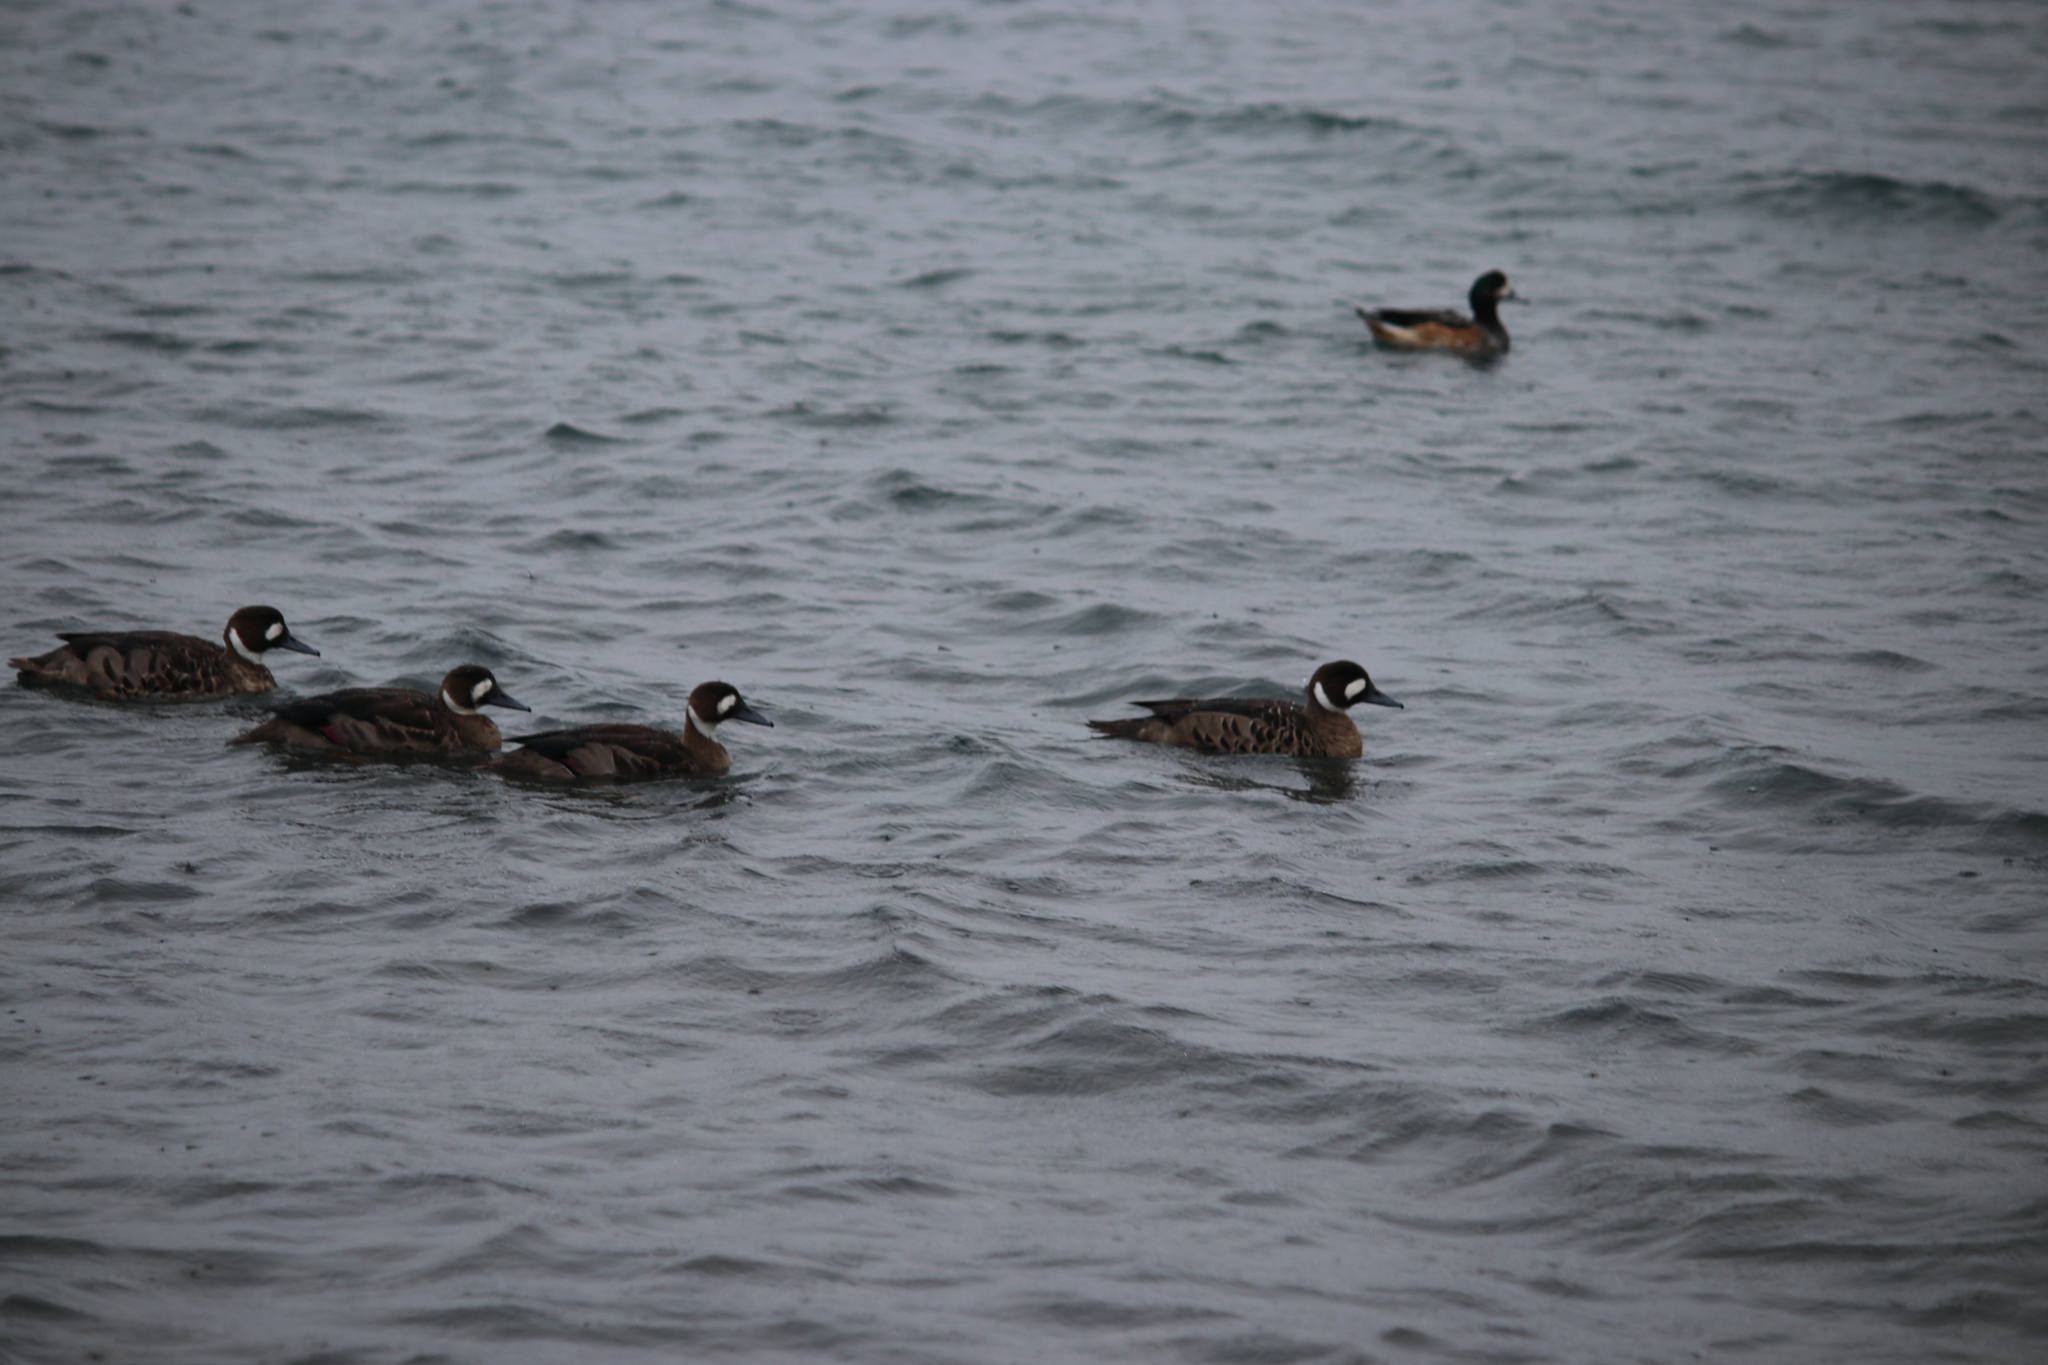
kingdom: Animalia
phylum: Chordata
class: Aves
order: Anseriformes
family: Anatidae
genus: Speculanas
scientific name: Speculanas specularis
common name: Bronze-winged duck
